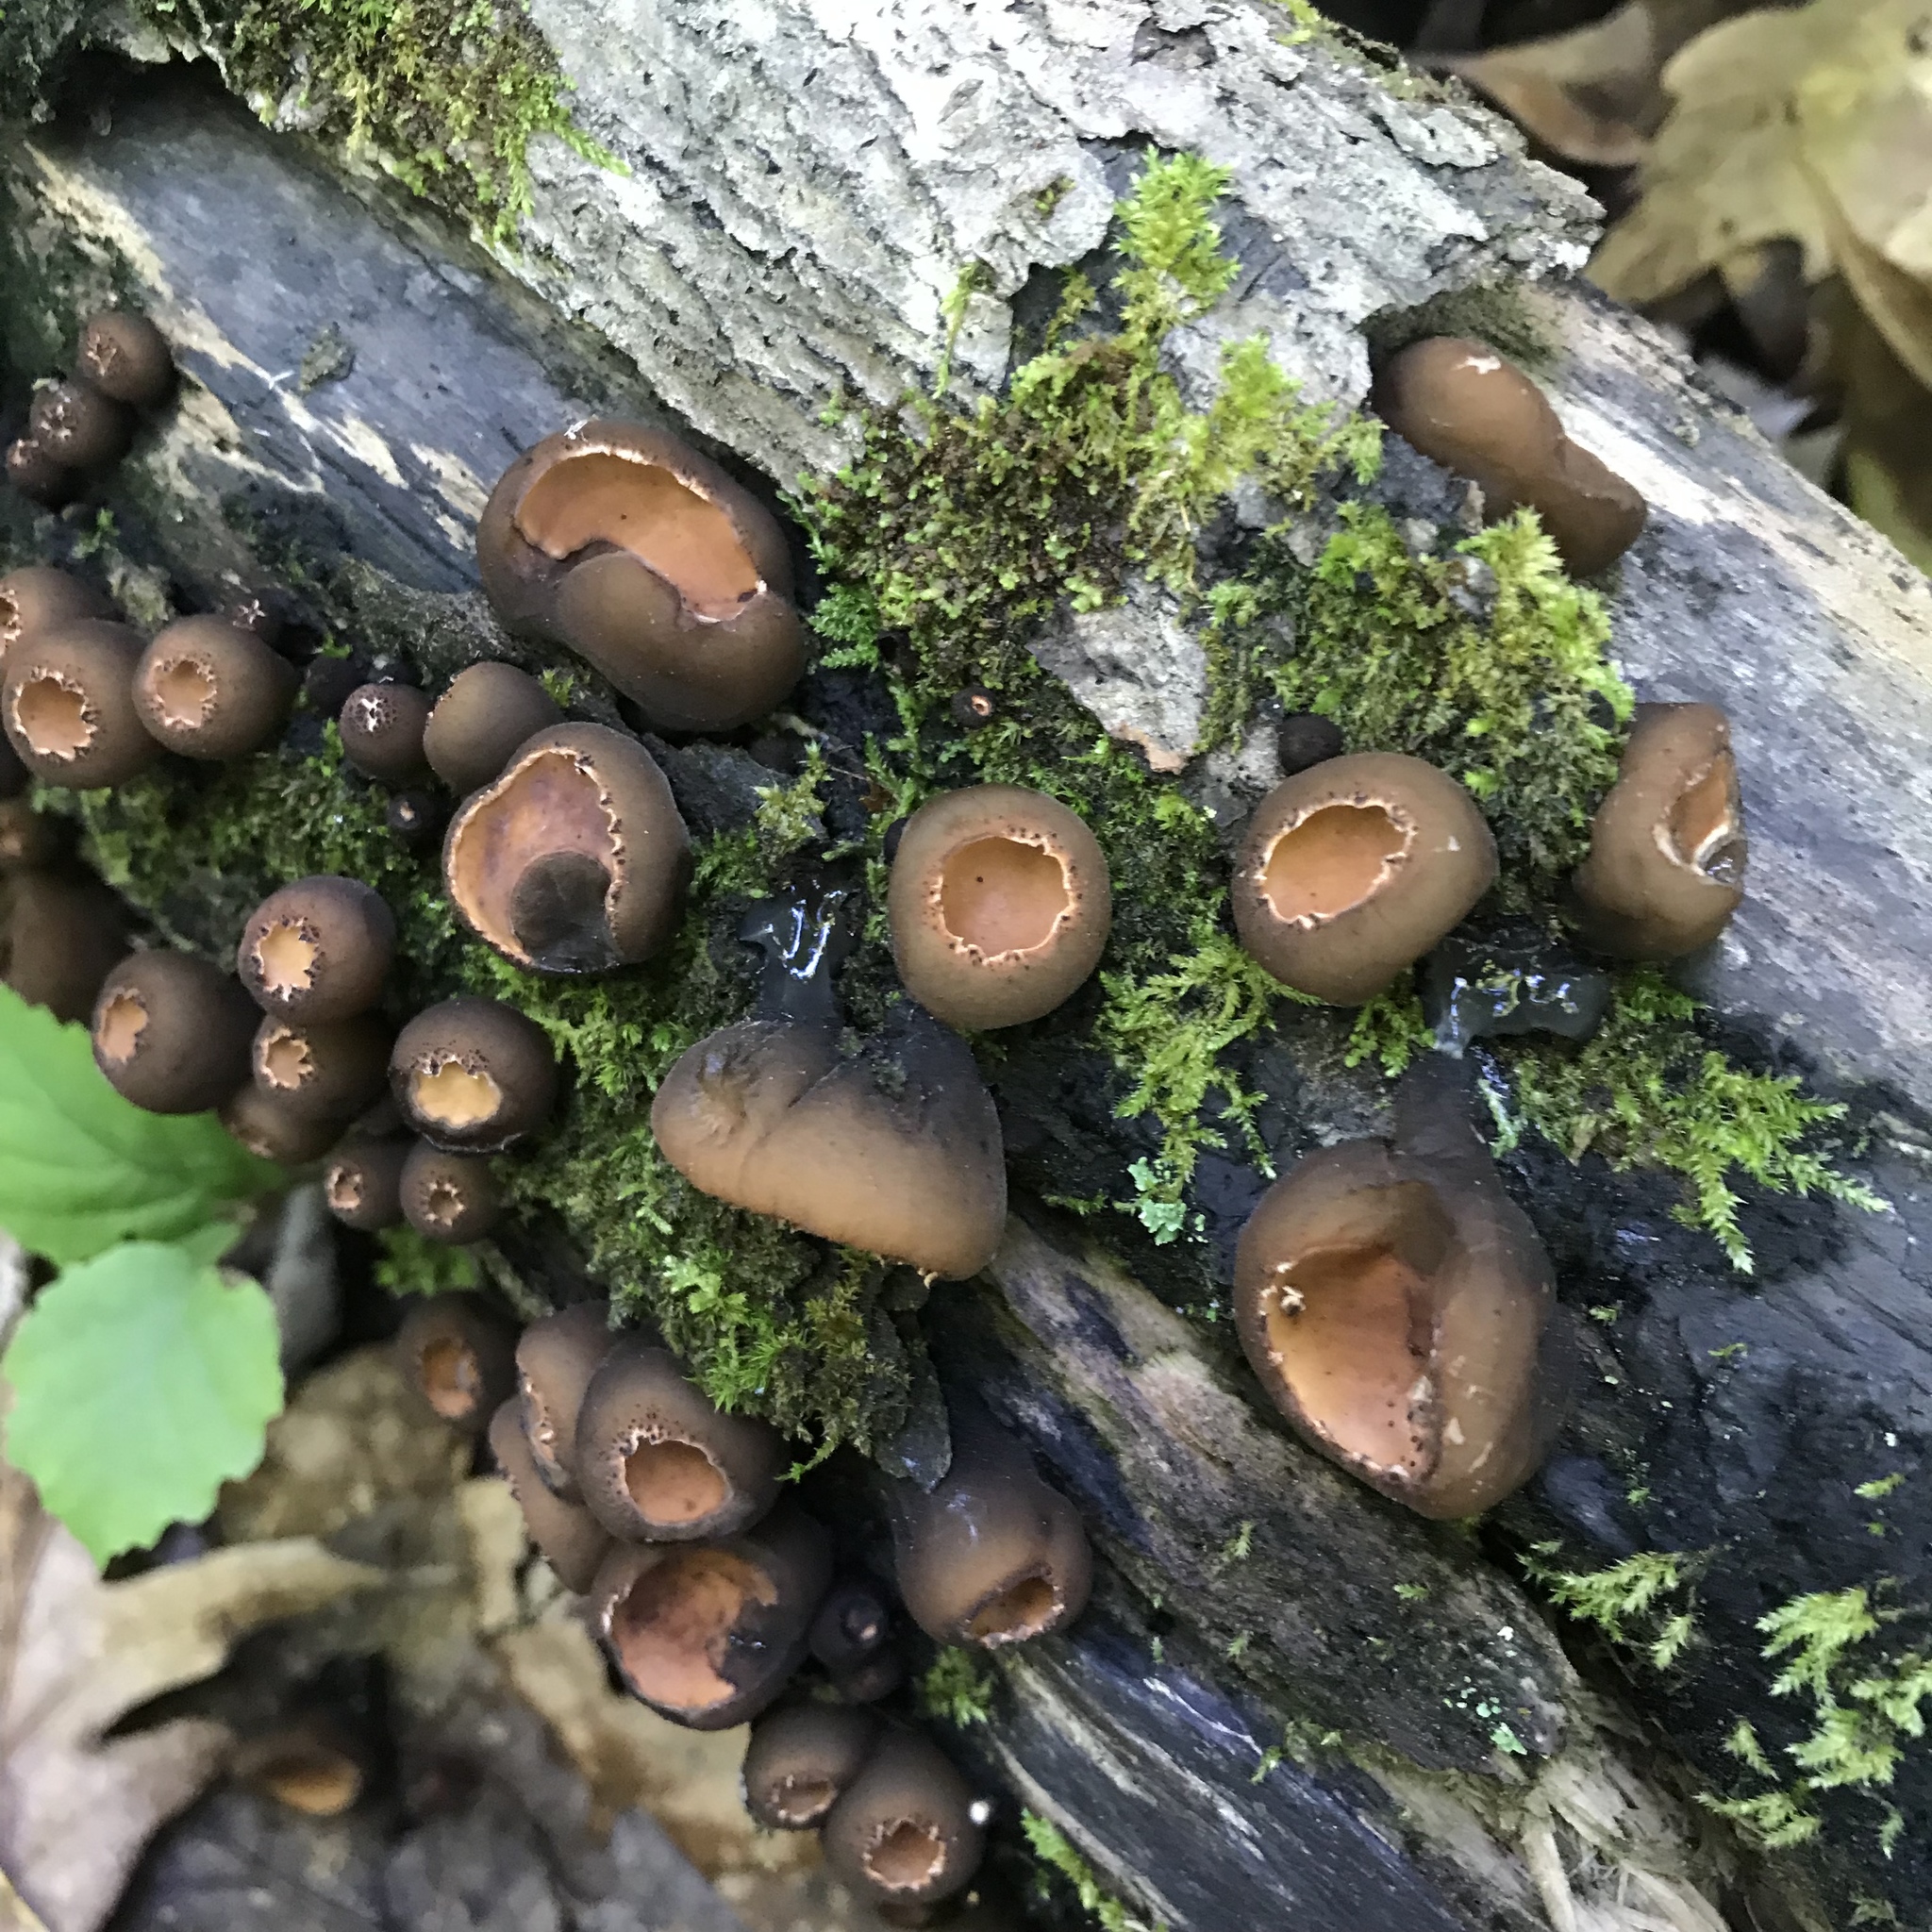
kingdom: Fungi
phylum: Ascomycota
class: Pezizomycetes
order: Pezizales
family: Sarcosomataceae
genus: Galiella
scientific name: Galiella rufa
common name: Hairy rubber cup
